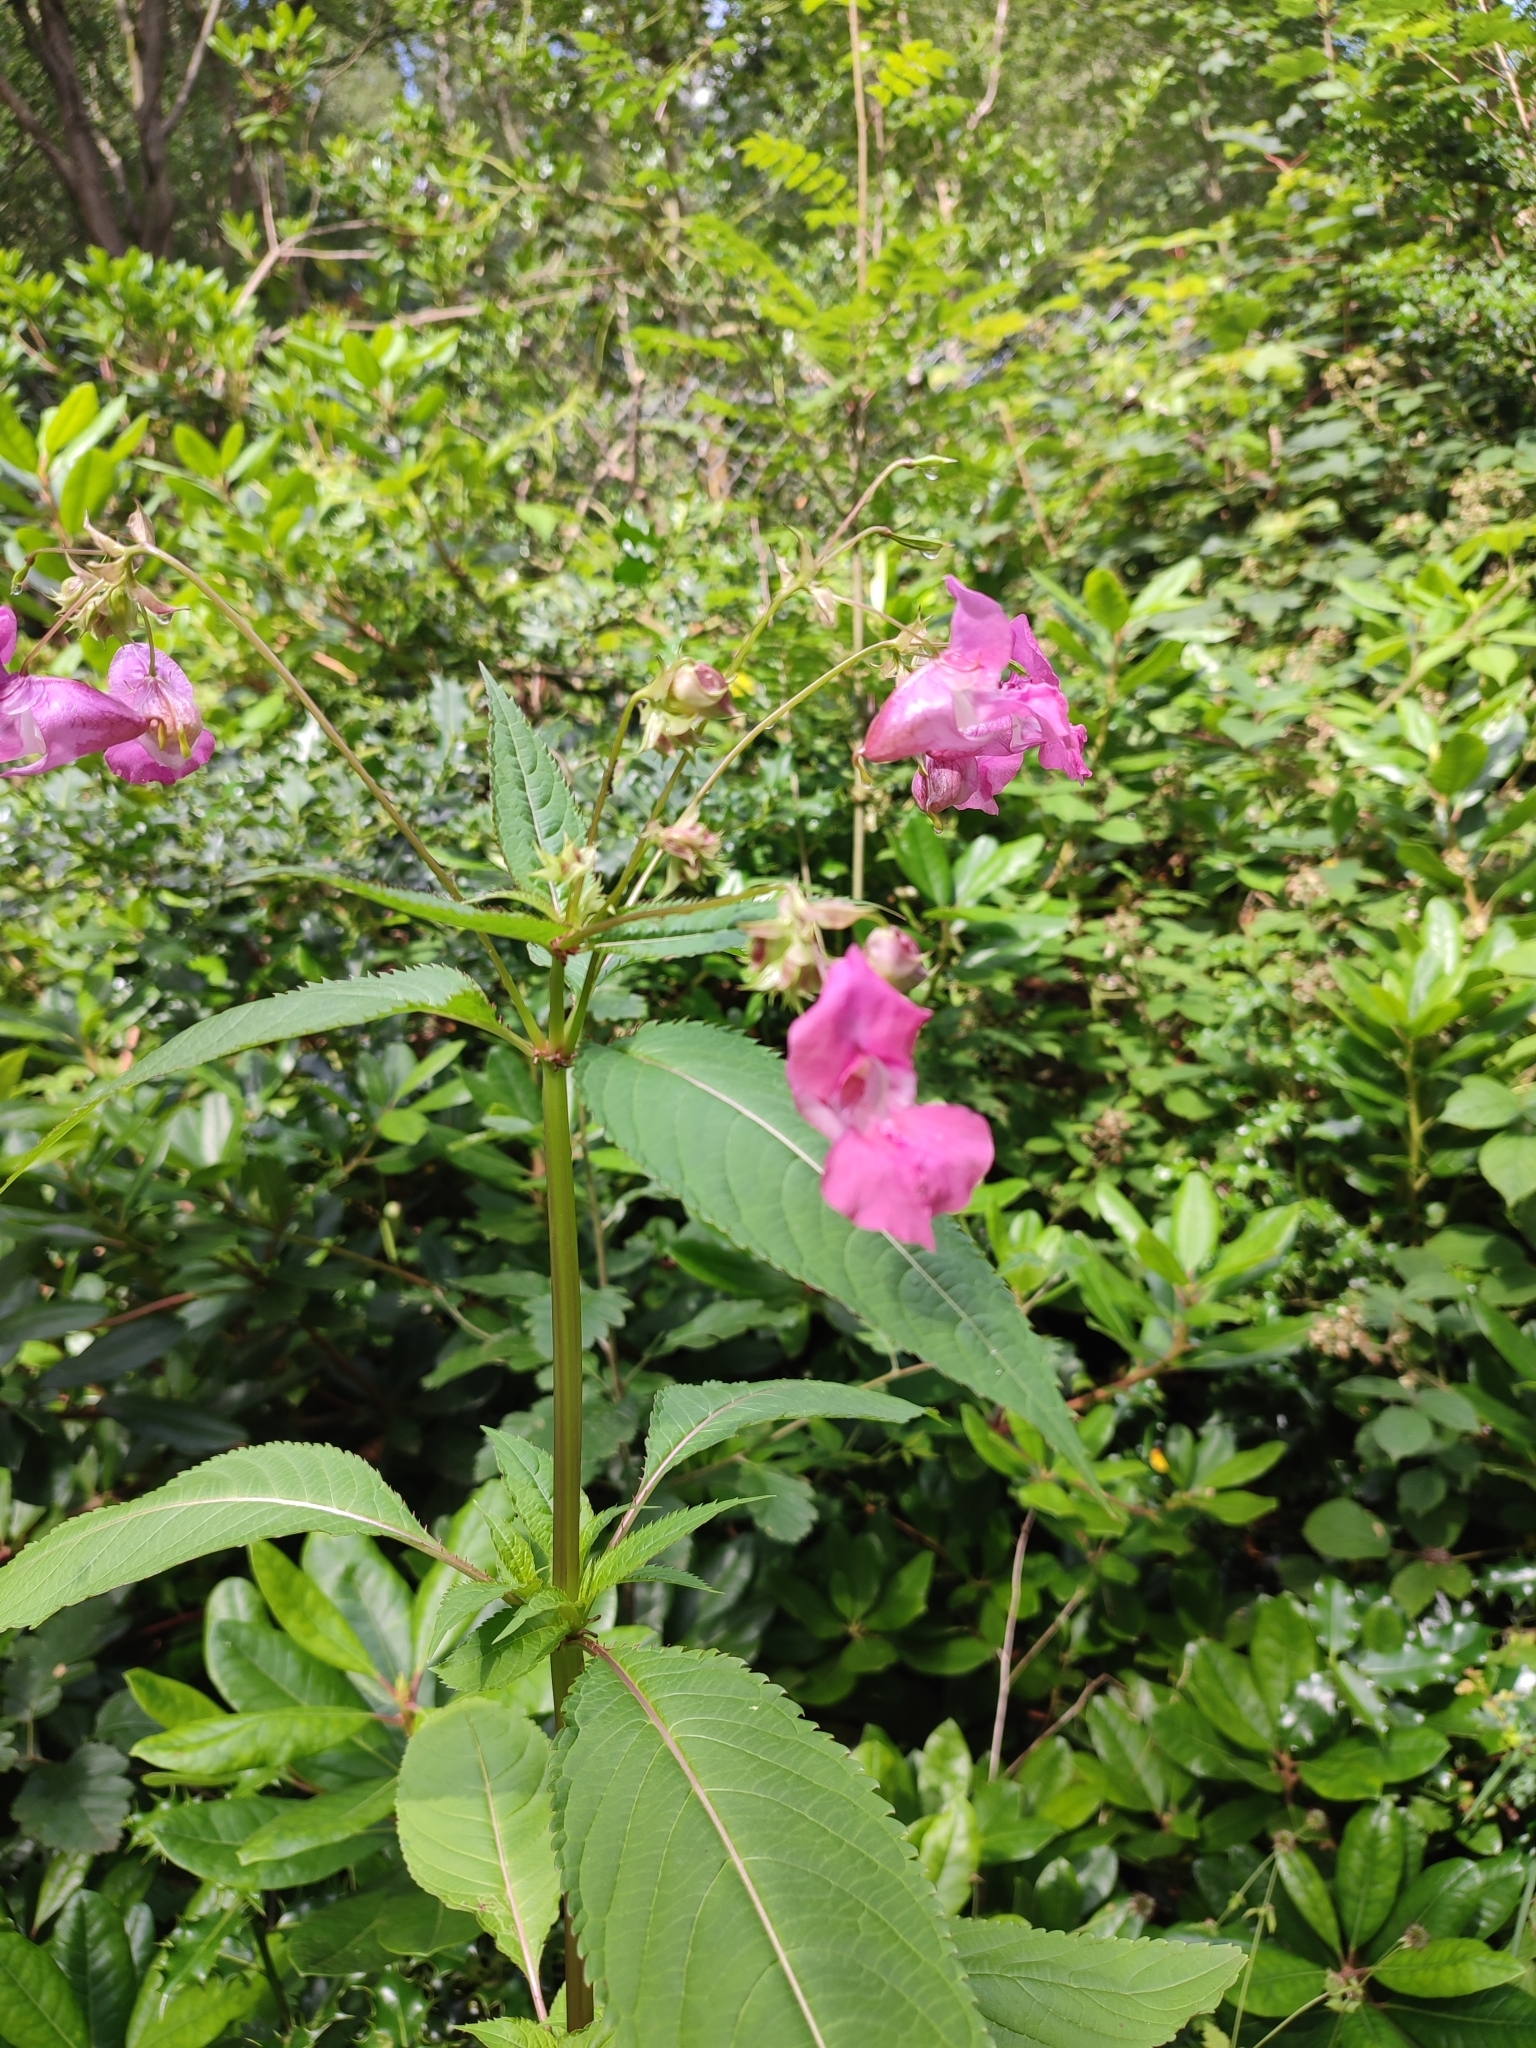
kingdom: Plantae
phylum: Tracheophyta
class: Magnoliopsida
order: Ericales
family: Balsaminaceae
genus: Impatiens
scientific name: Impatiens glandulifera
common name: Himalayan balsam
